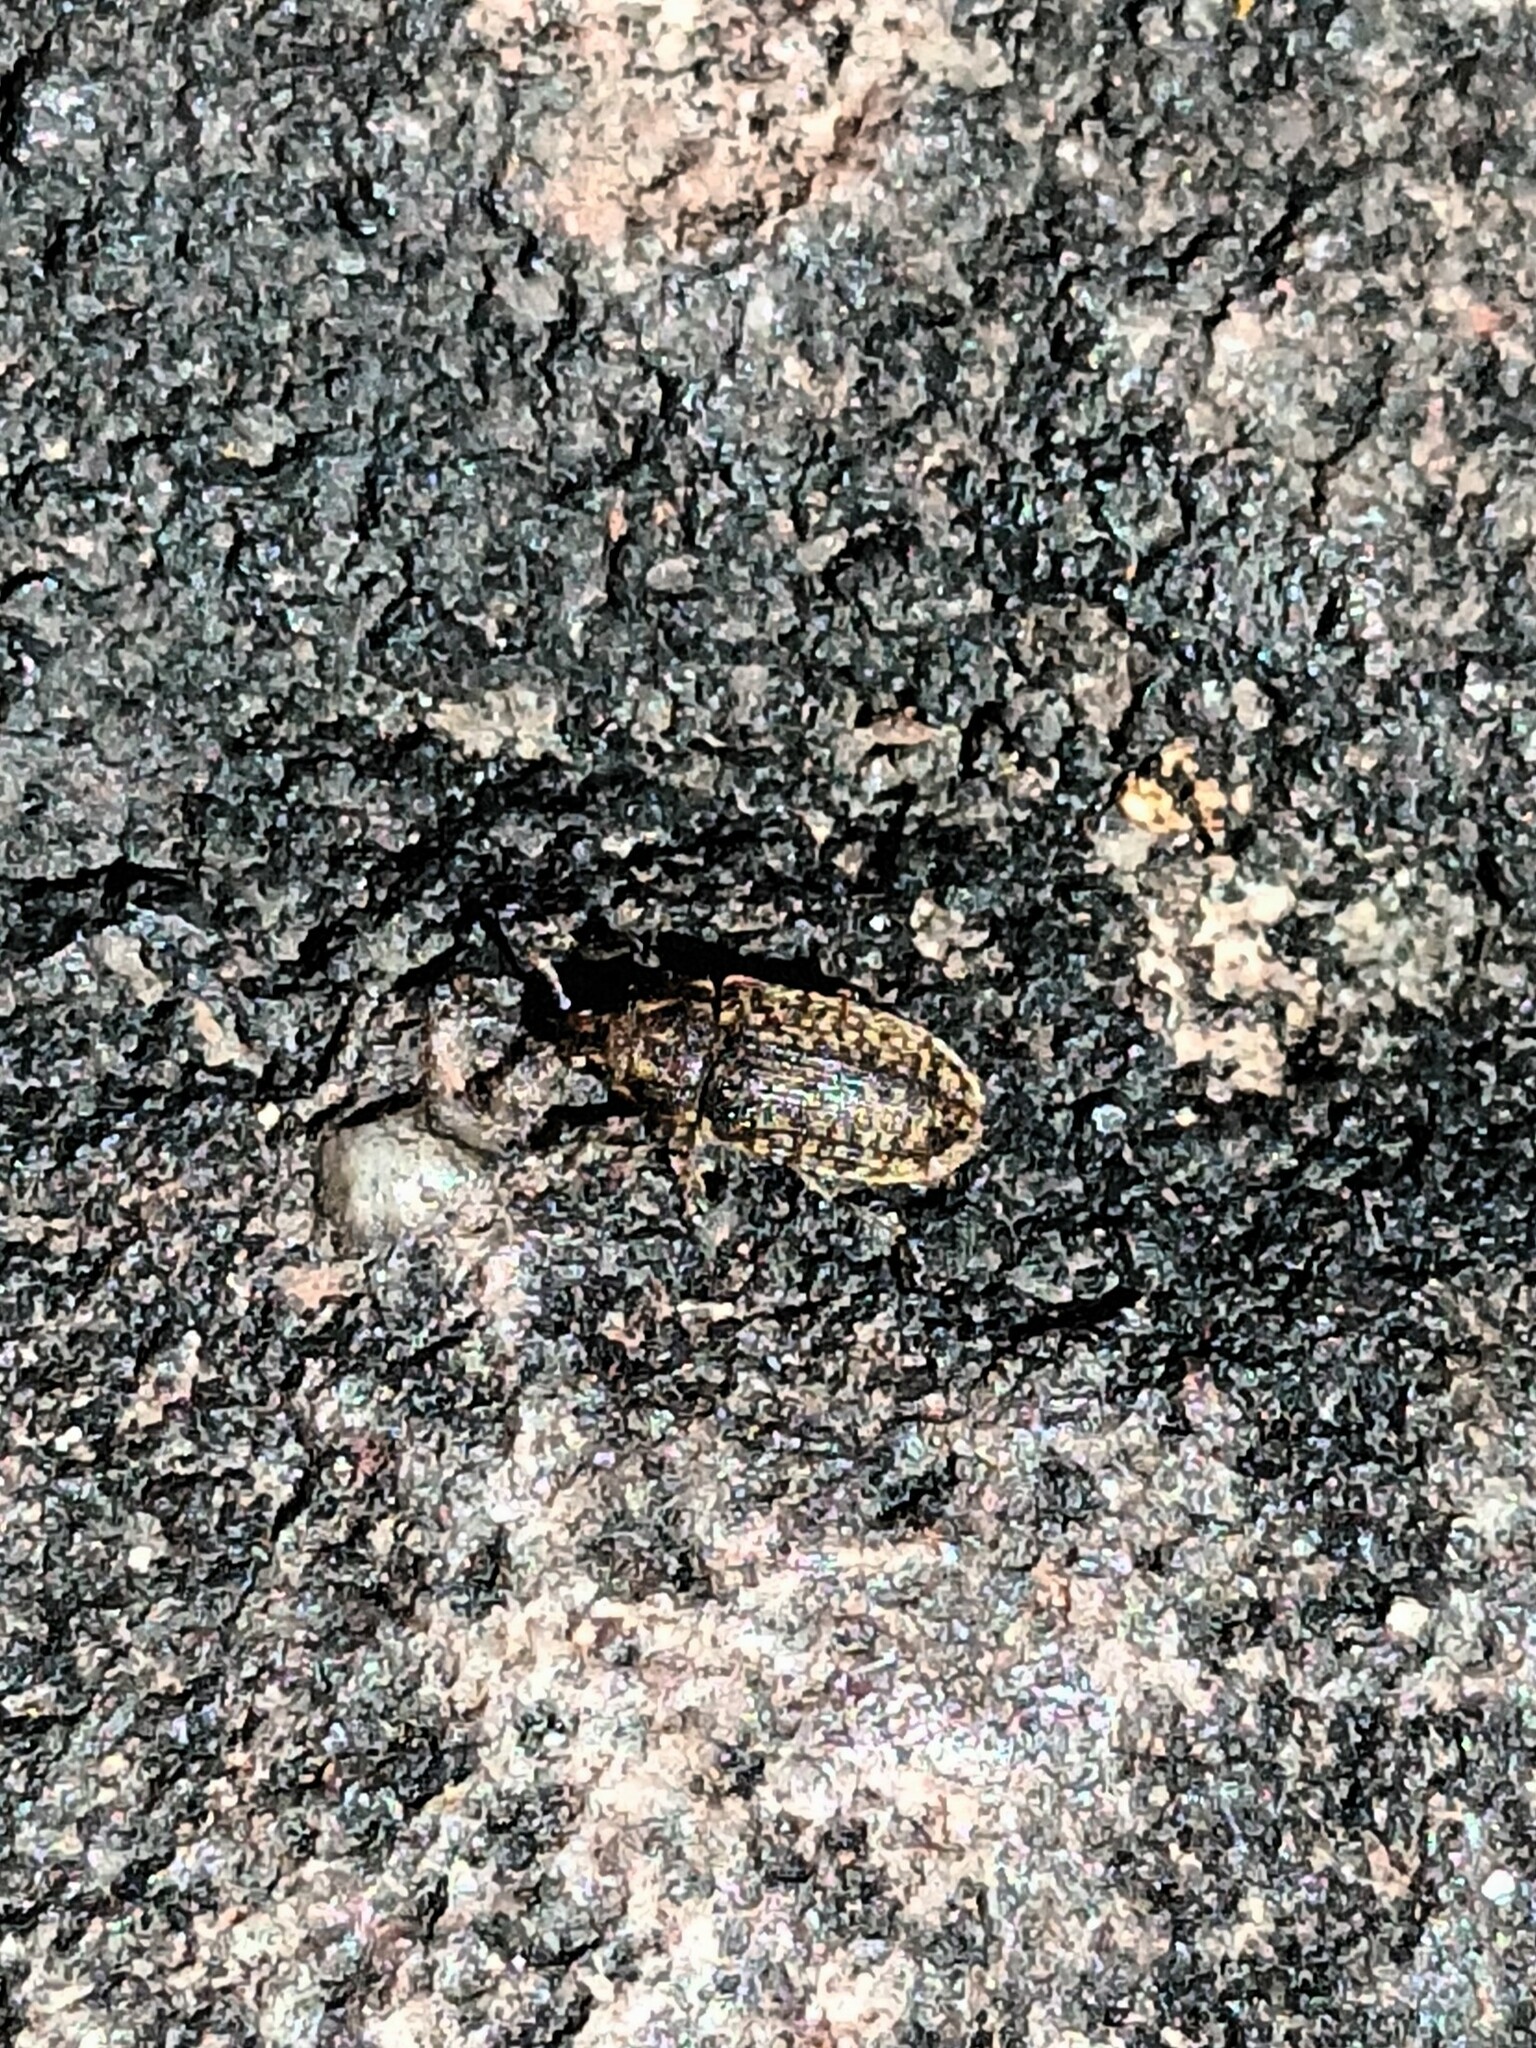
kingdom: Animalia
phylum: Arthropoda
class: Insecta
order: Coleoptera
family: Curculionidae
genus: Rhinocyllus
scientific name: Rhinocyllus conicus
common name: Weevil
